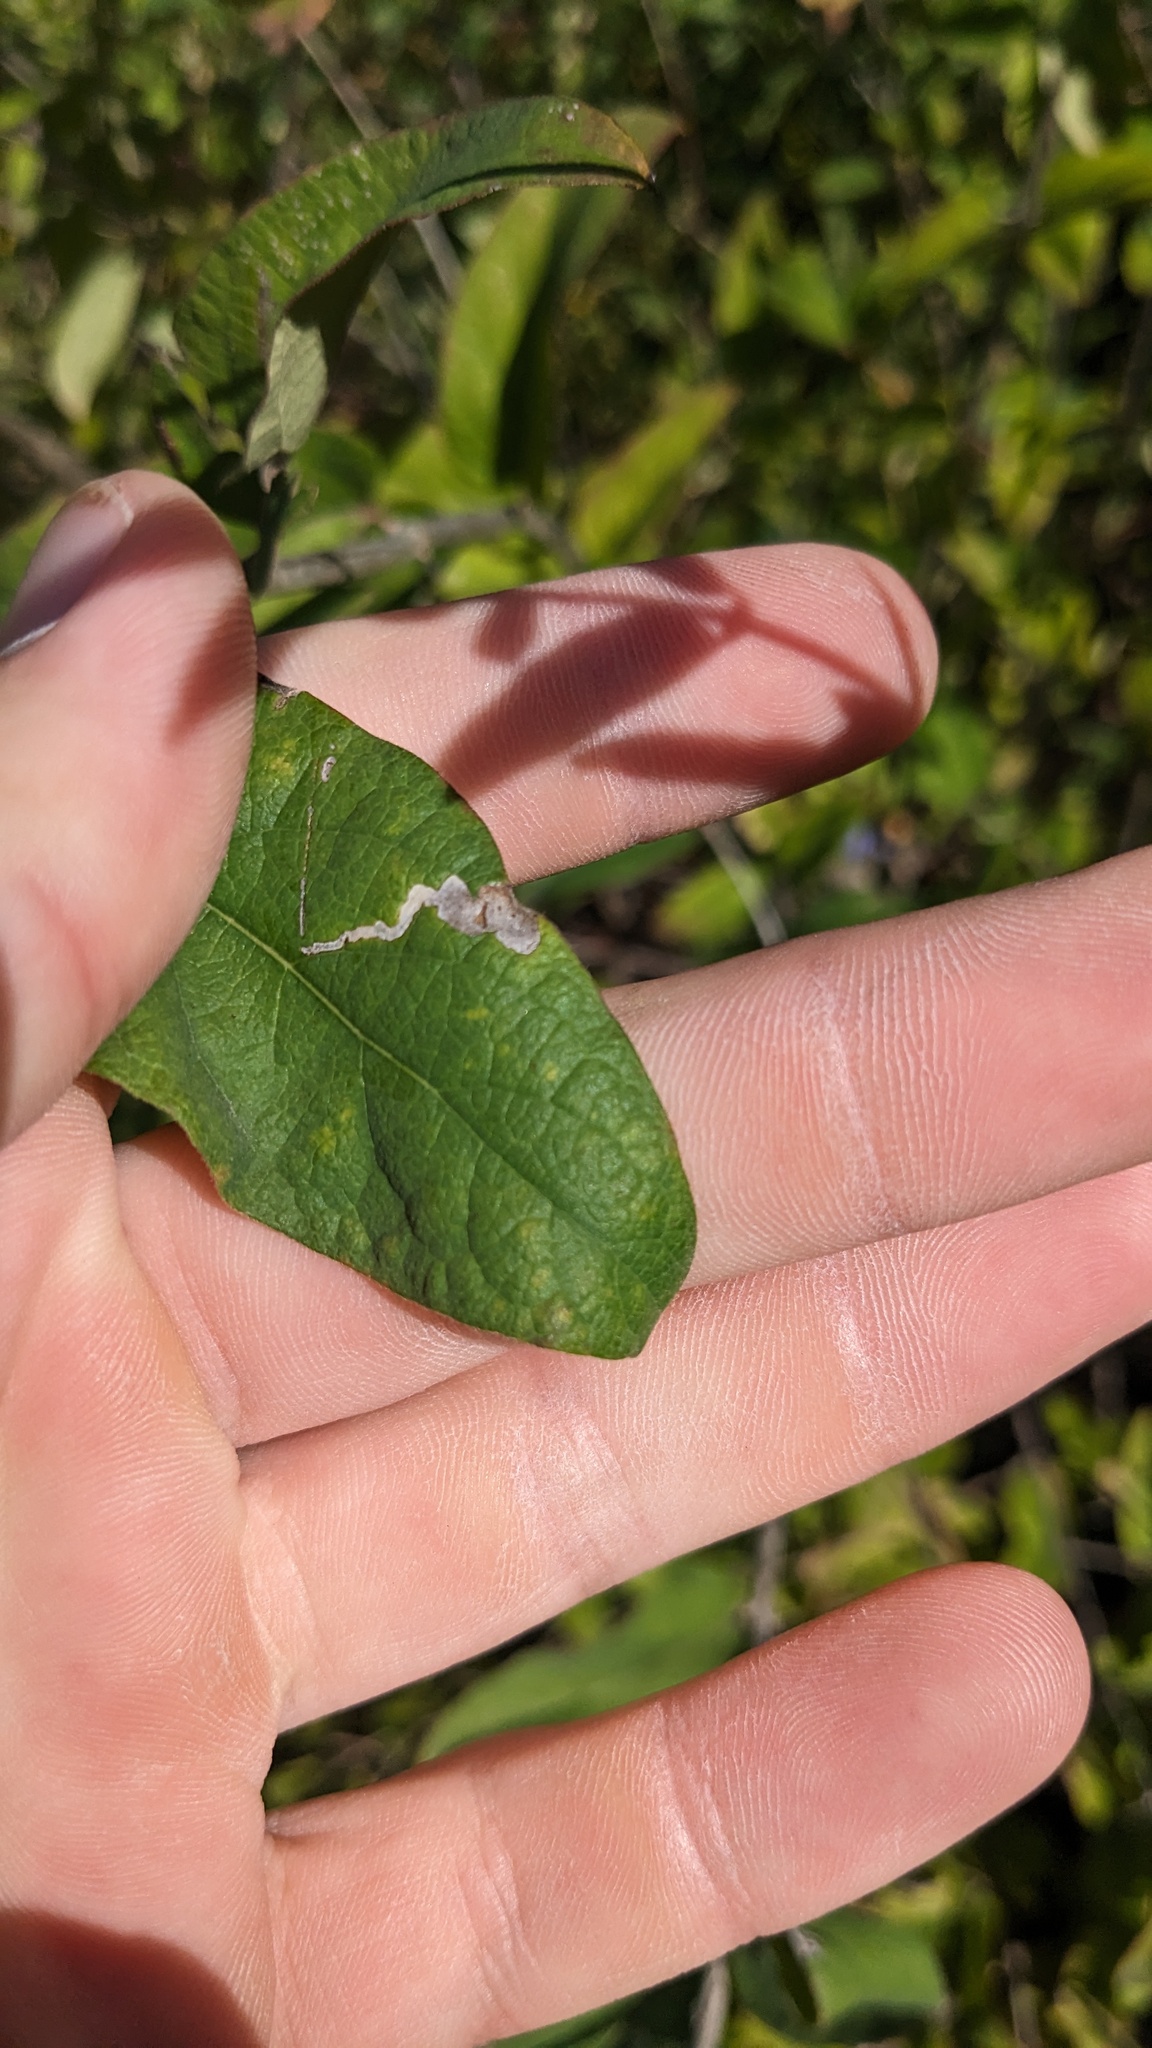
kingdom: Animalia
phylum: Arthropoda
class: Insecta
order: Diptera
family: Agromyzidae
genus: Aulagromyza
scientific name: Aulagromyza
